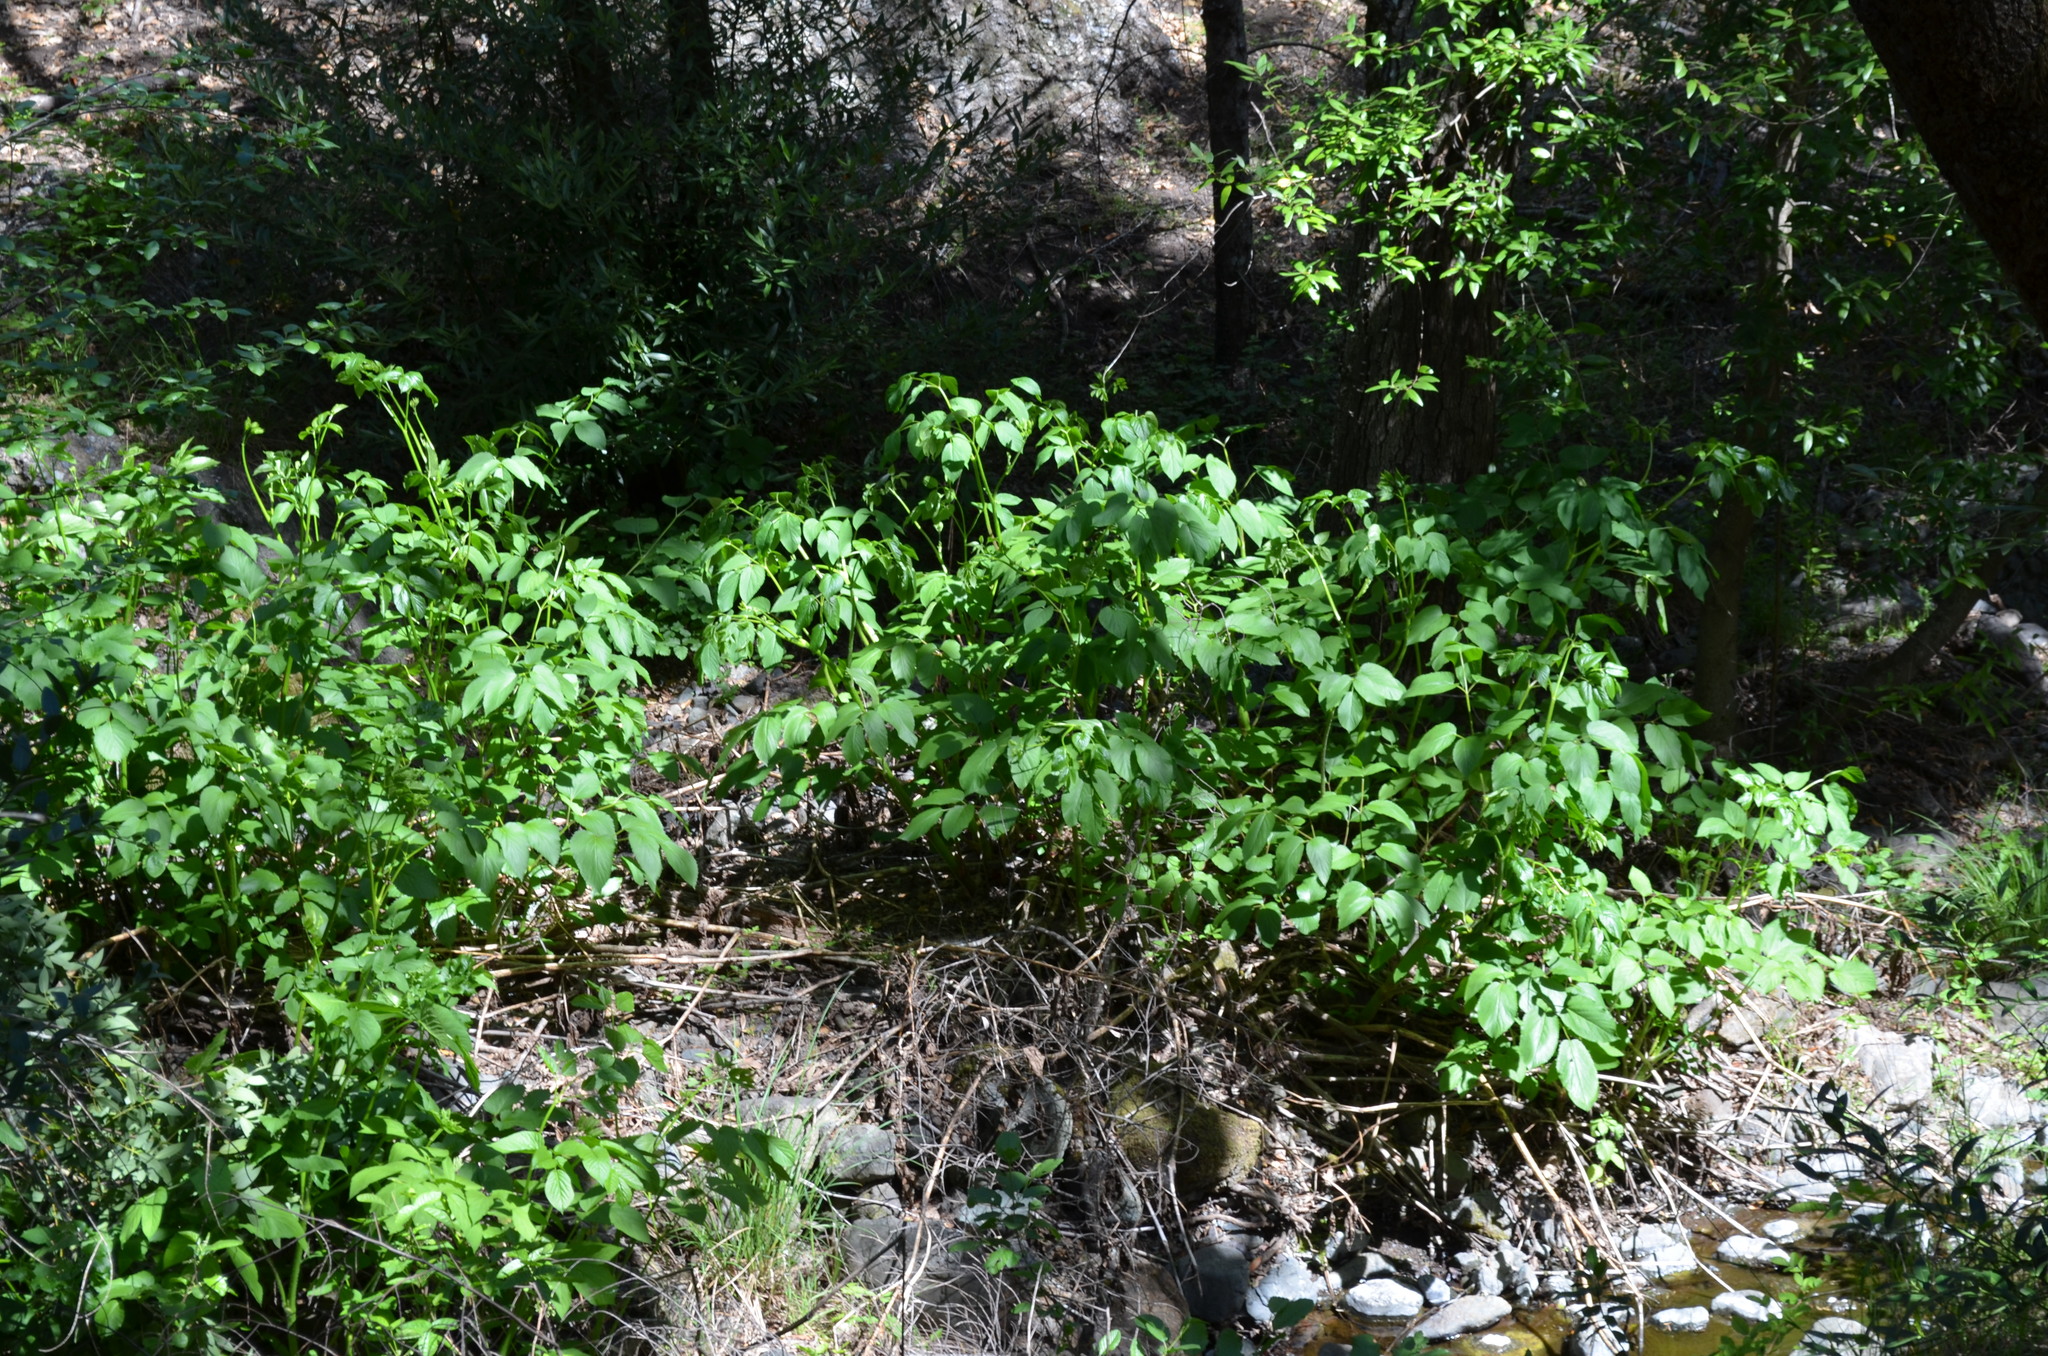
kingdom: Plantae
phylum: Tracheophyta
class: Magnoliopsida
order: Apiales
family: Araliaceae
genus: Aralia
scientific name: Aralia californica
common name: California-ginseng
